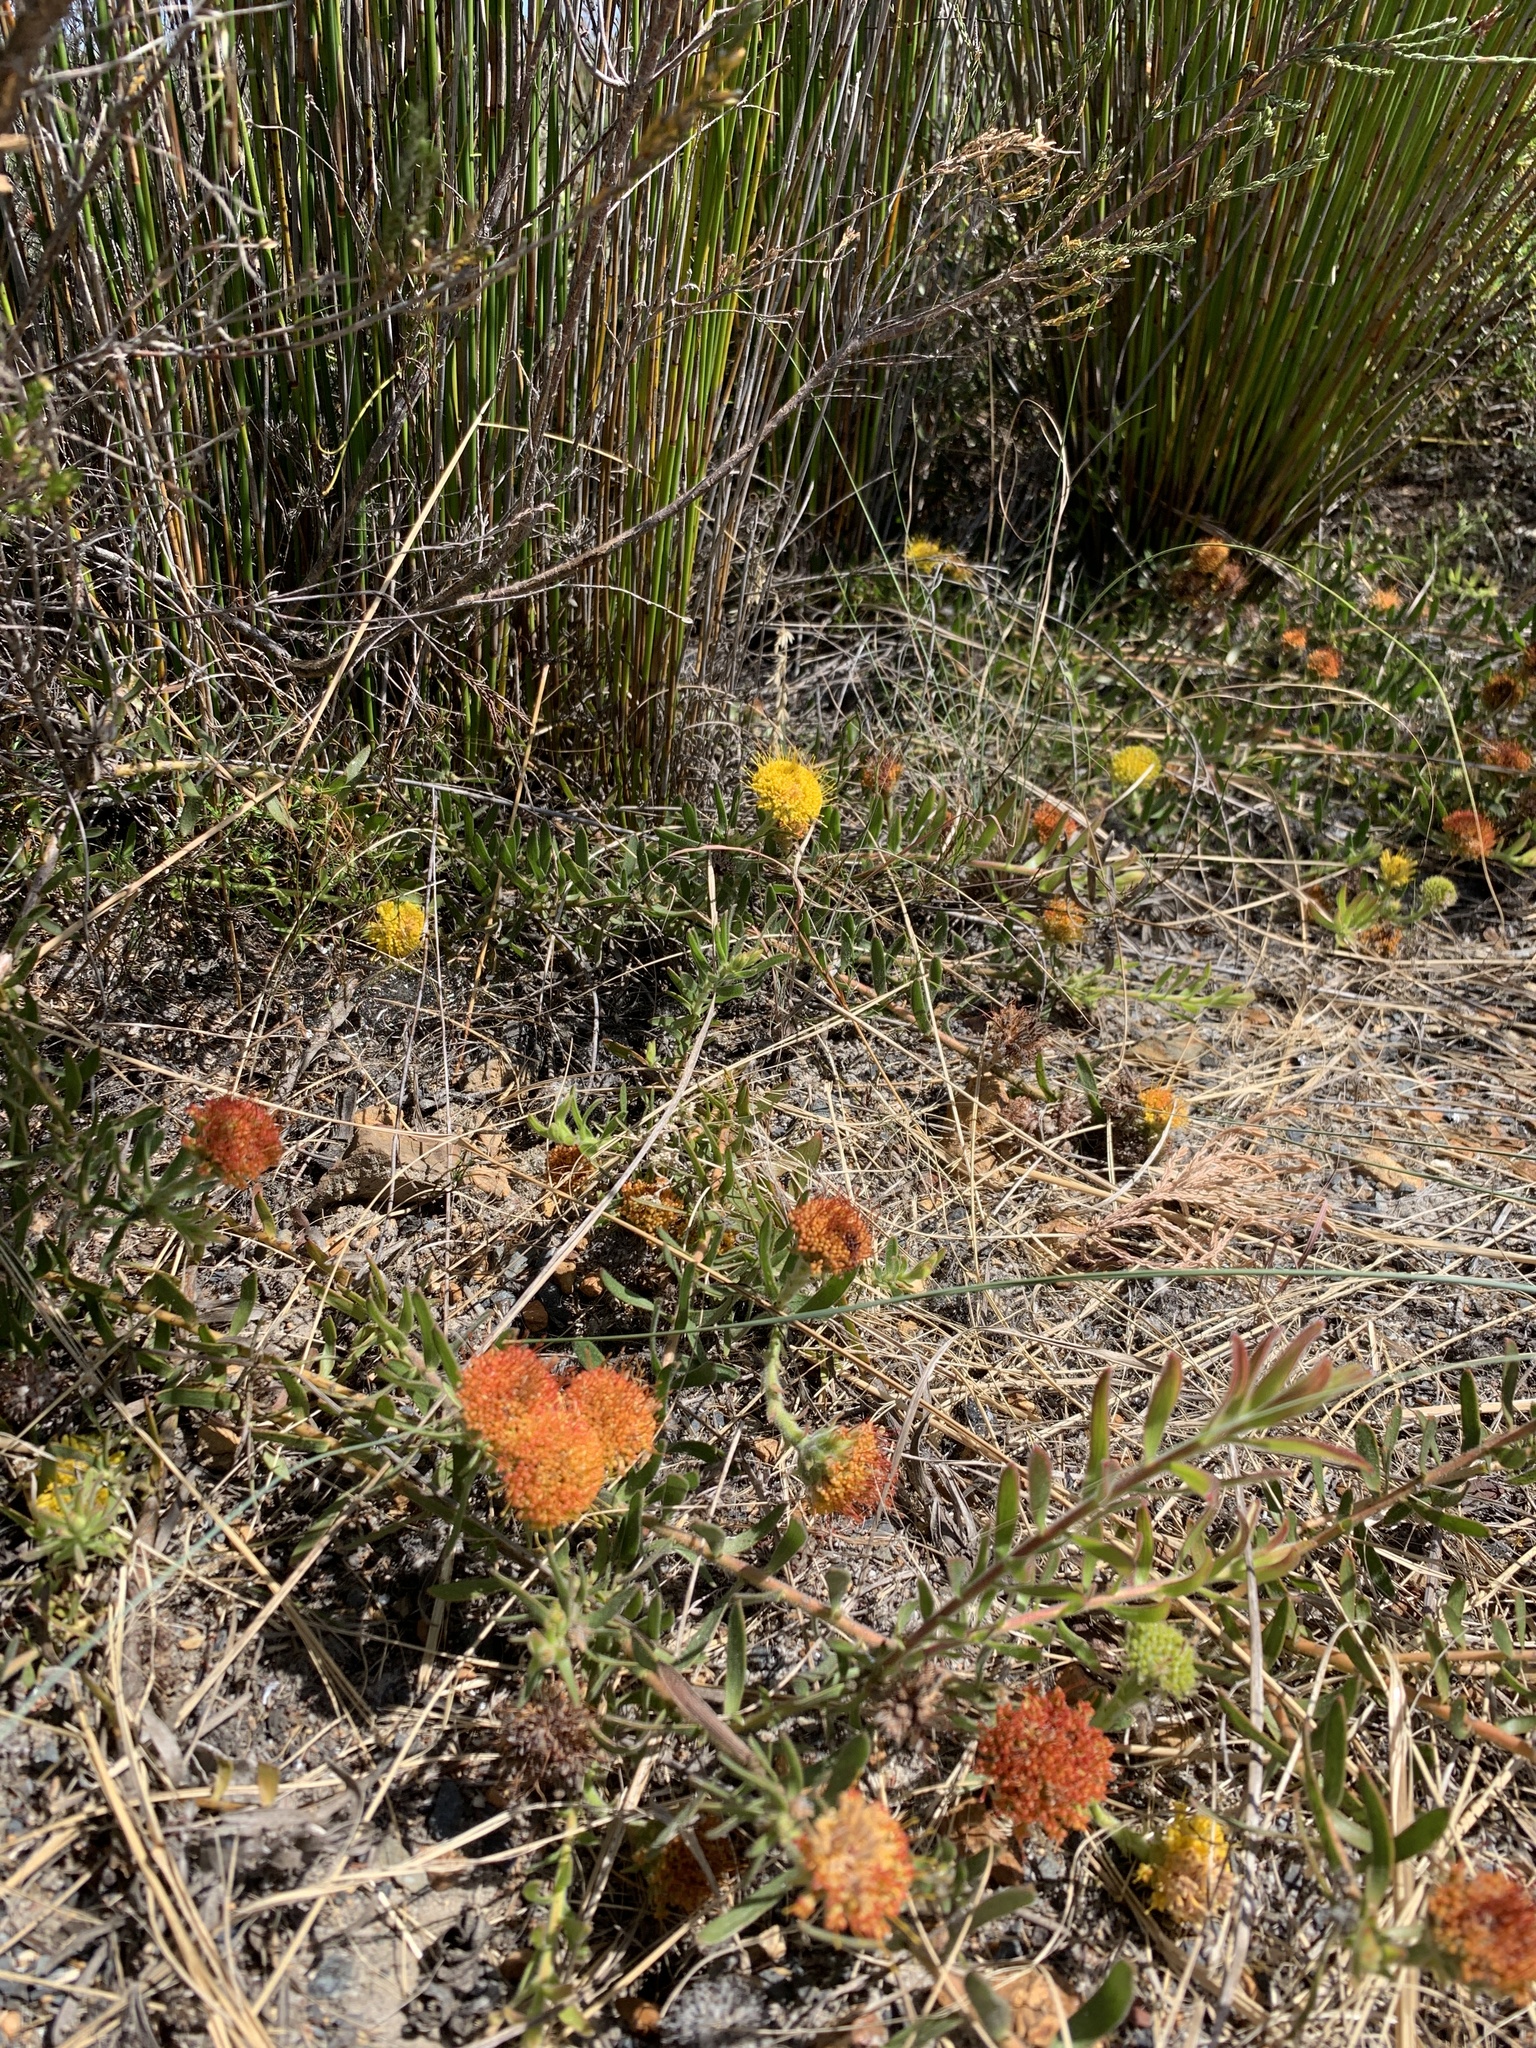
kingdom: Plantae
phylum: Tracheophyta
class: Magnoliopsida
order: Proteales
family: Proteaceae
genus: Leucospermum
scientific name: Leucospermum prostratum
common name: Yellow-trailing pincushion
